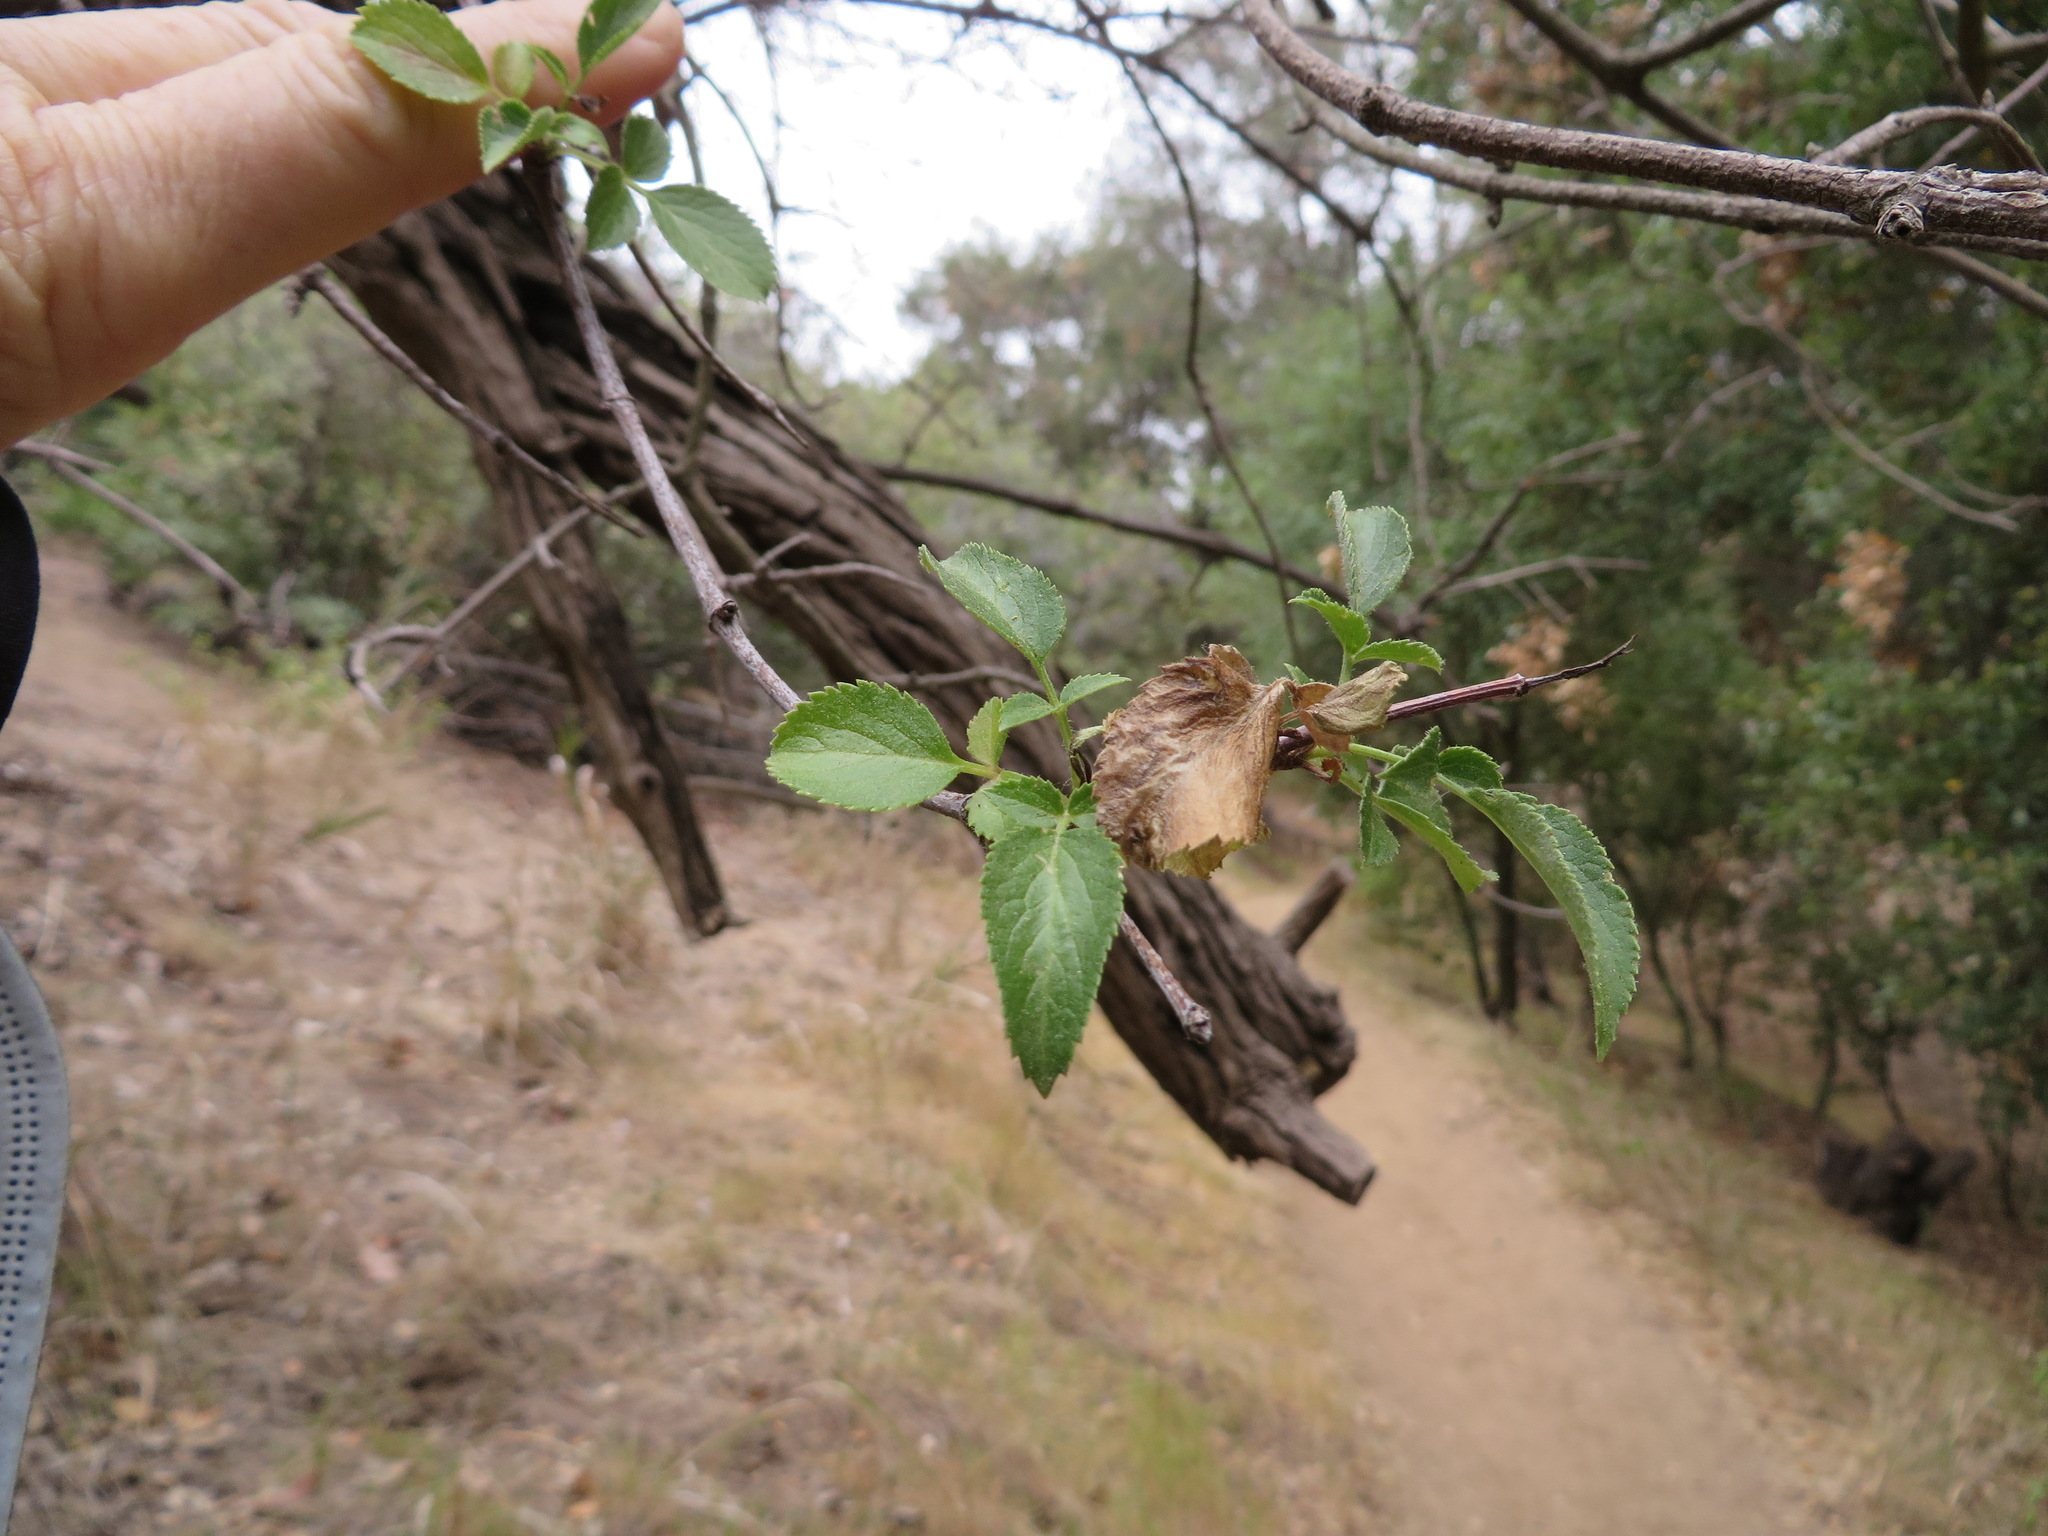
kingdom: Plantae
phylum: Tracheophyta
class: Magnoliopsida
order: Dipsacales
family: Viburnaceae
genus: Sambucus
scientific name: Sambucus cerulea
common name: Blue elder
